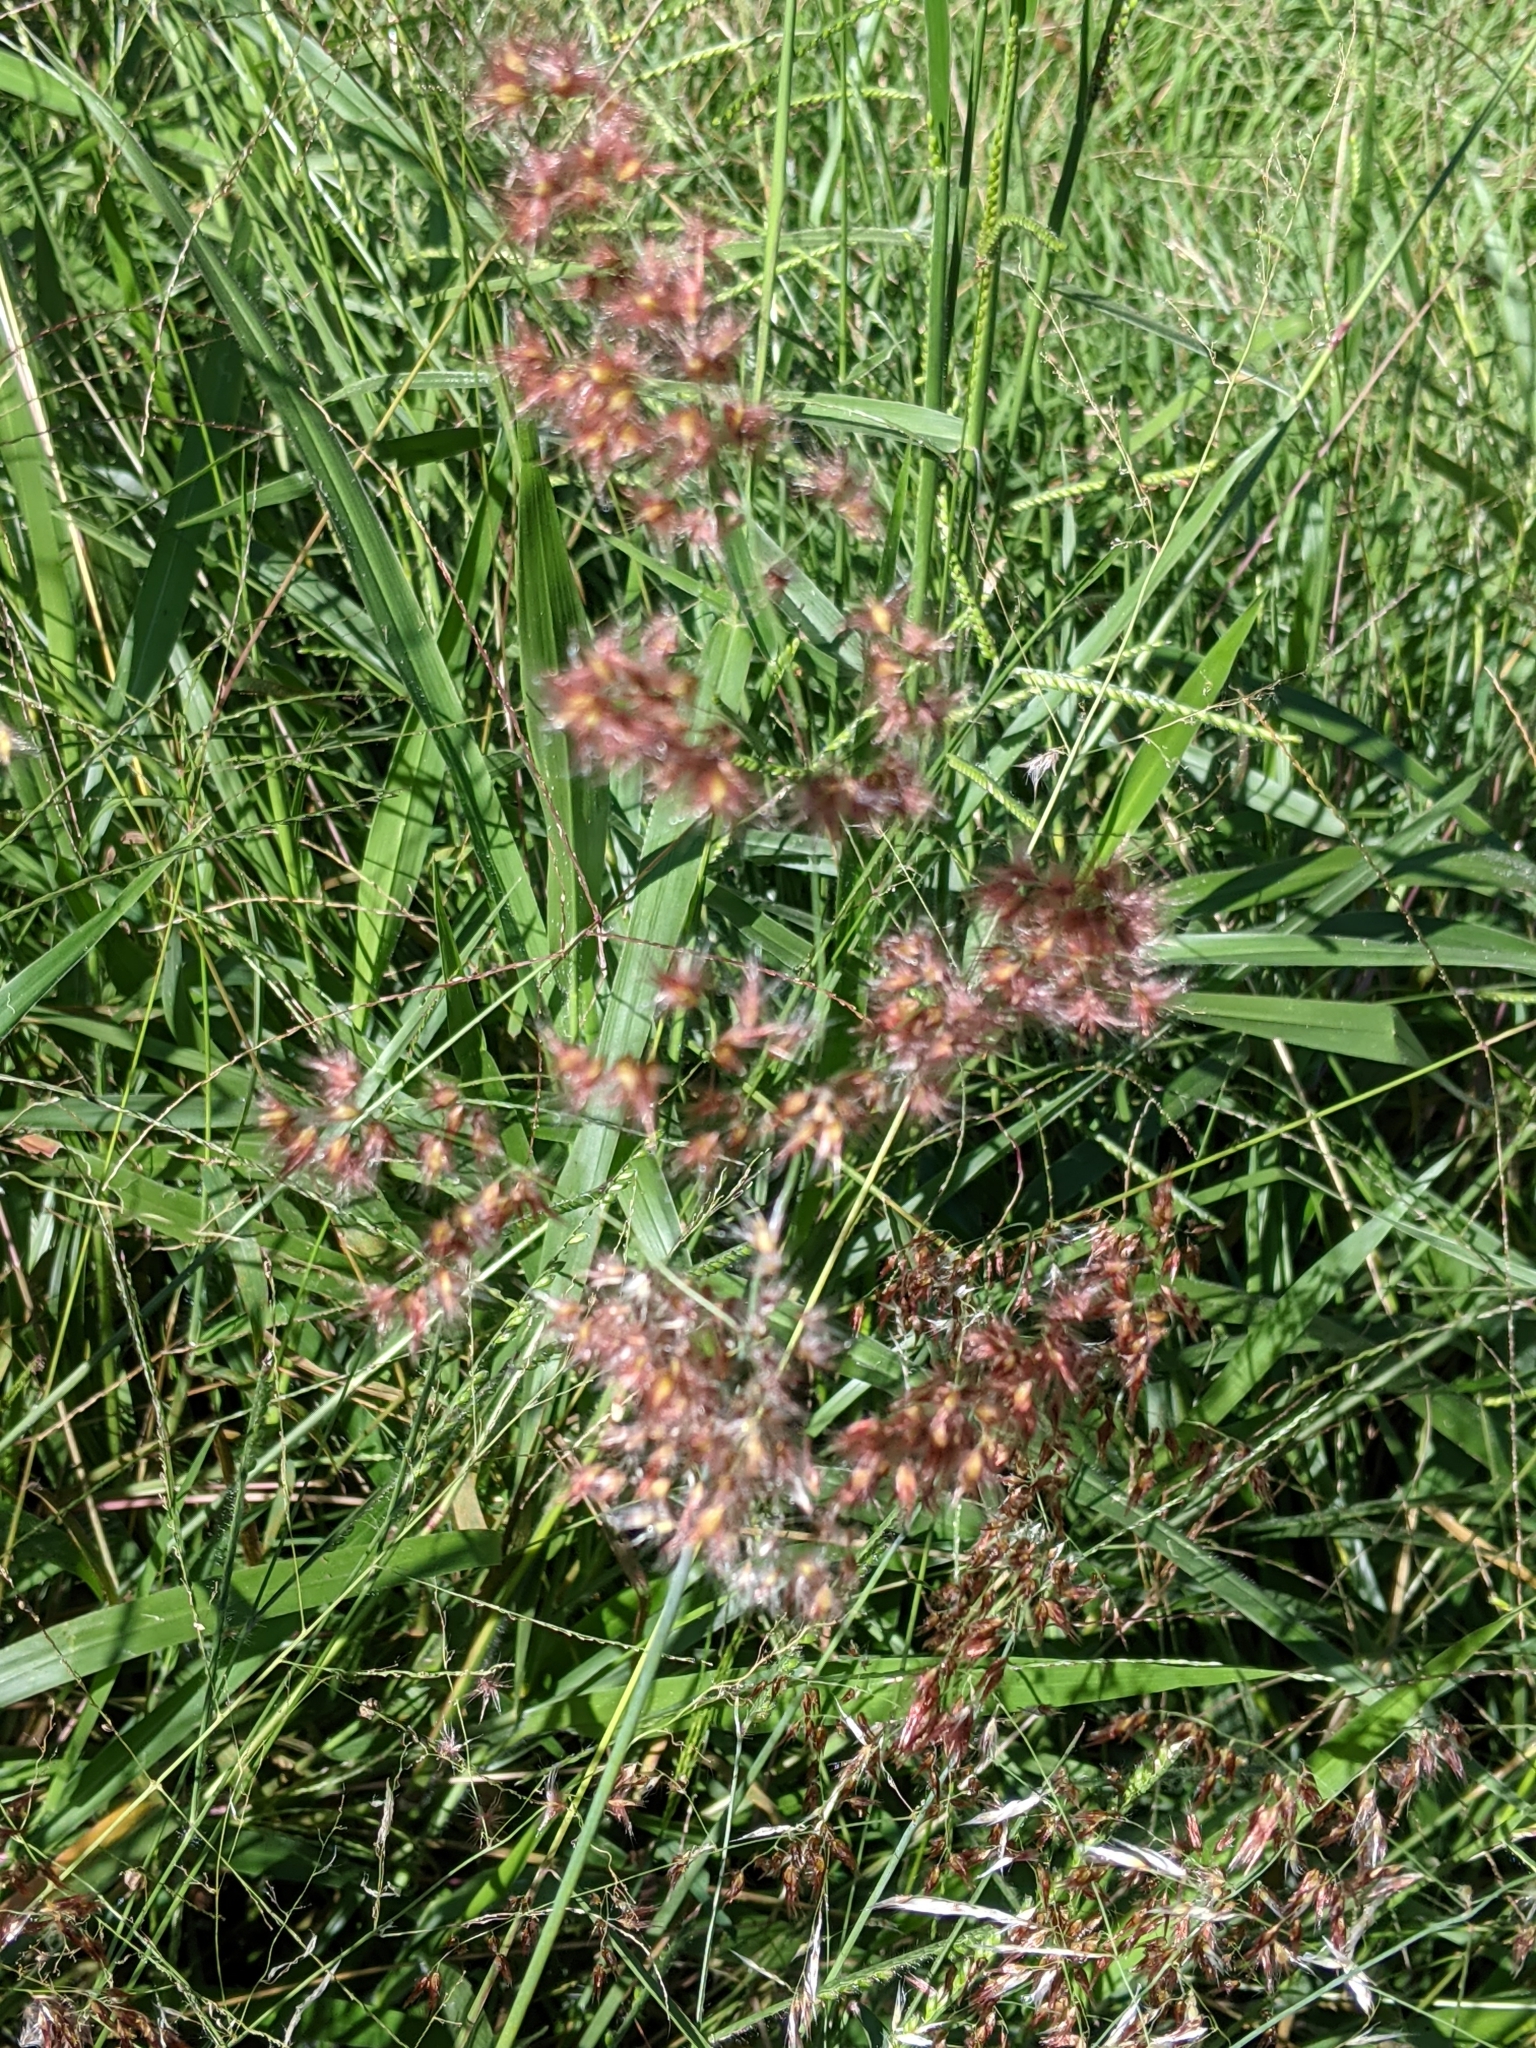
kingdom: Plantae
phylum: Tracheophyta
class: Liliopsida
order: Poales
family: Poaceae
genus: Melinis
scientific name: Melinis repens
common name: Rose natal grass
